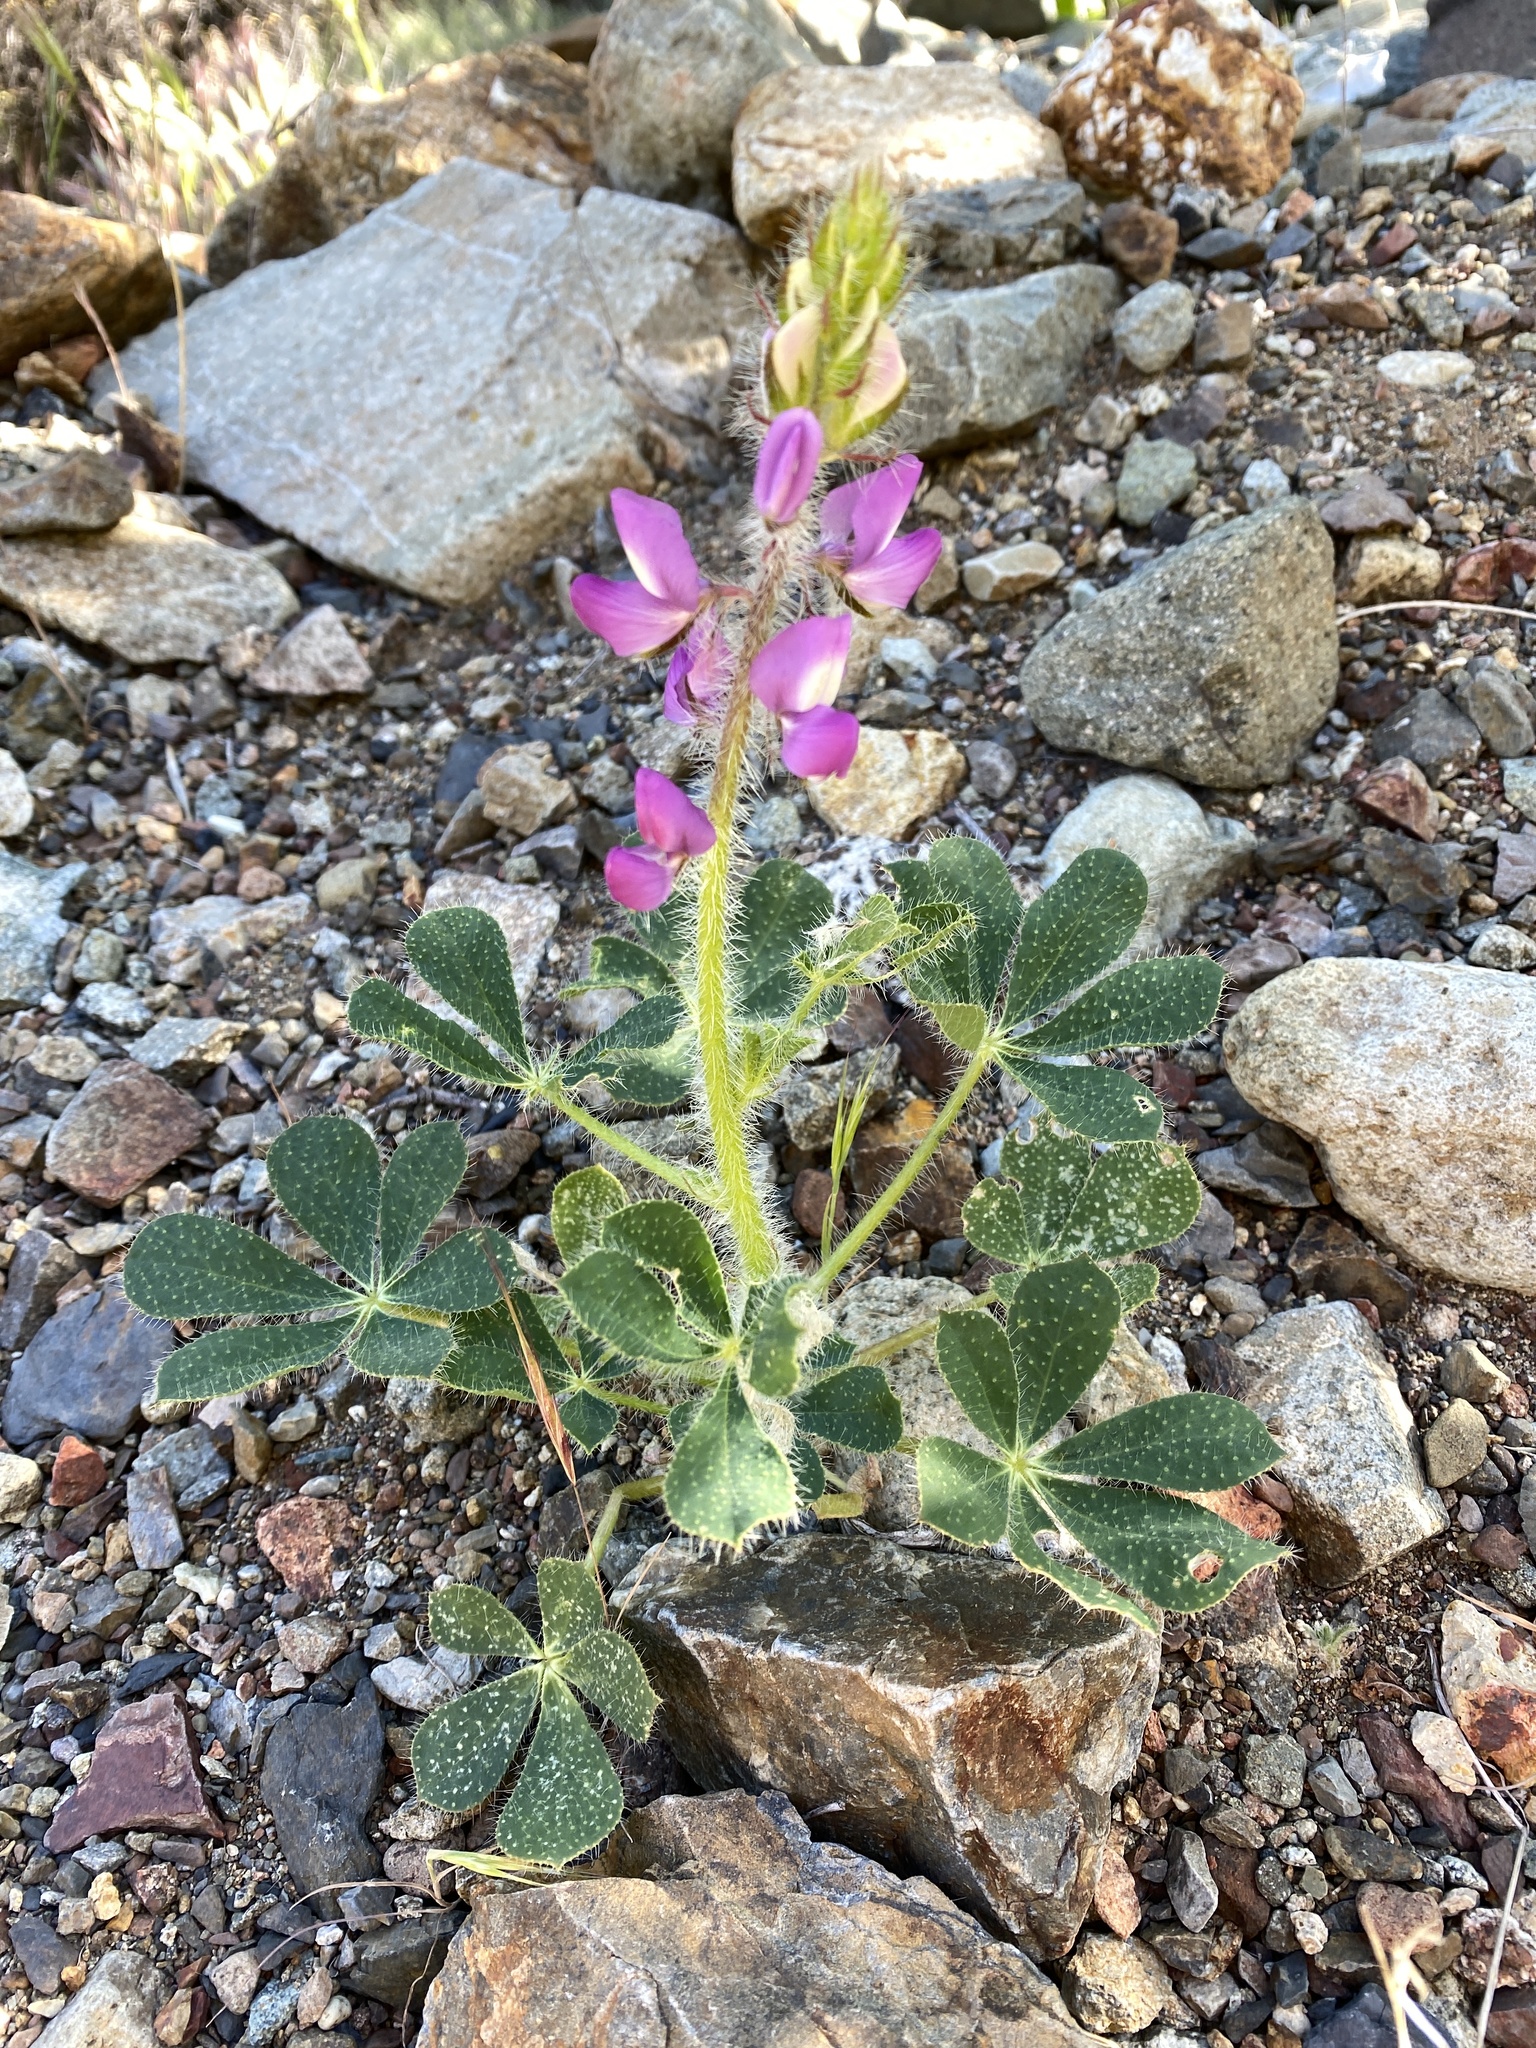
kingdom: Plantae
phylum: Tracheophyta
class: Magnoliopsida
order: Fabales
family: Fabaceae
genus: Lupinus
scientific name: Lupinus hirsutissimus
